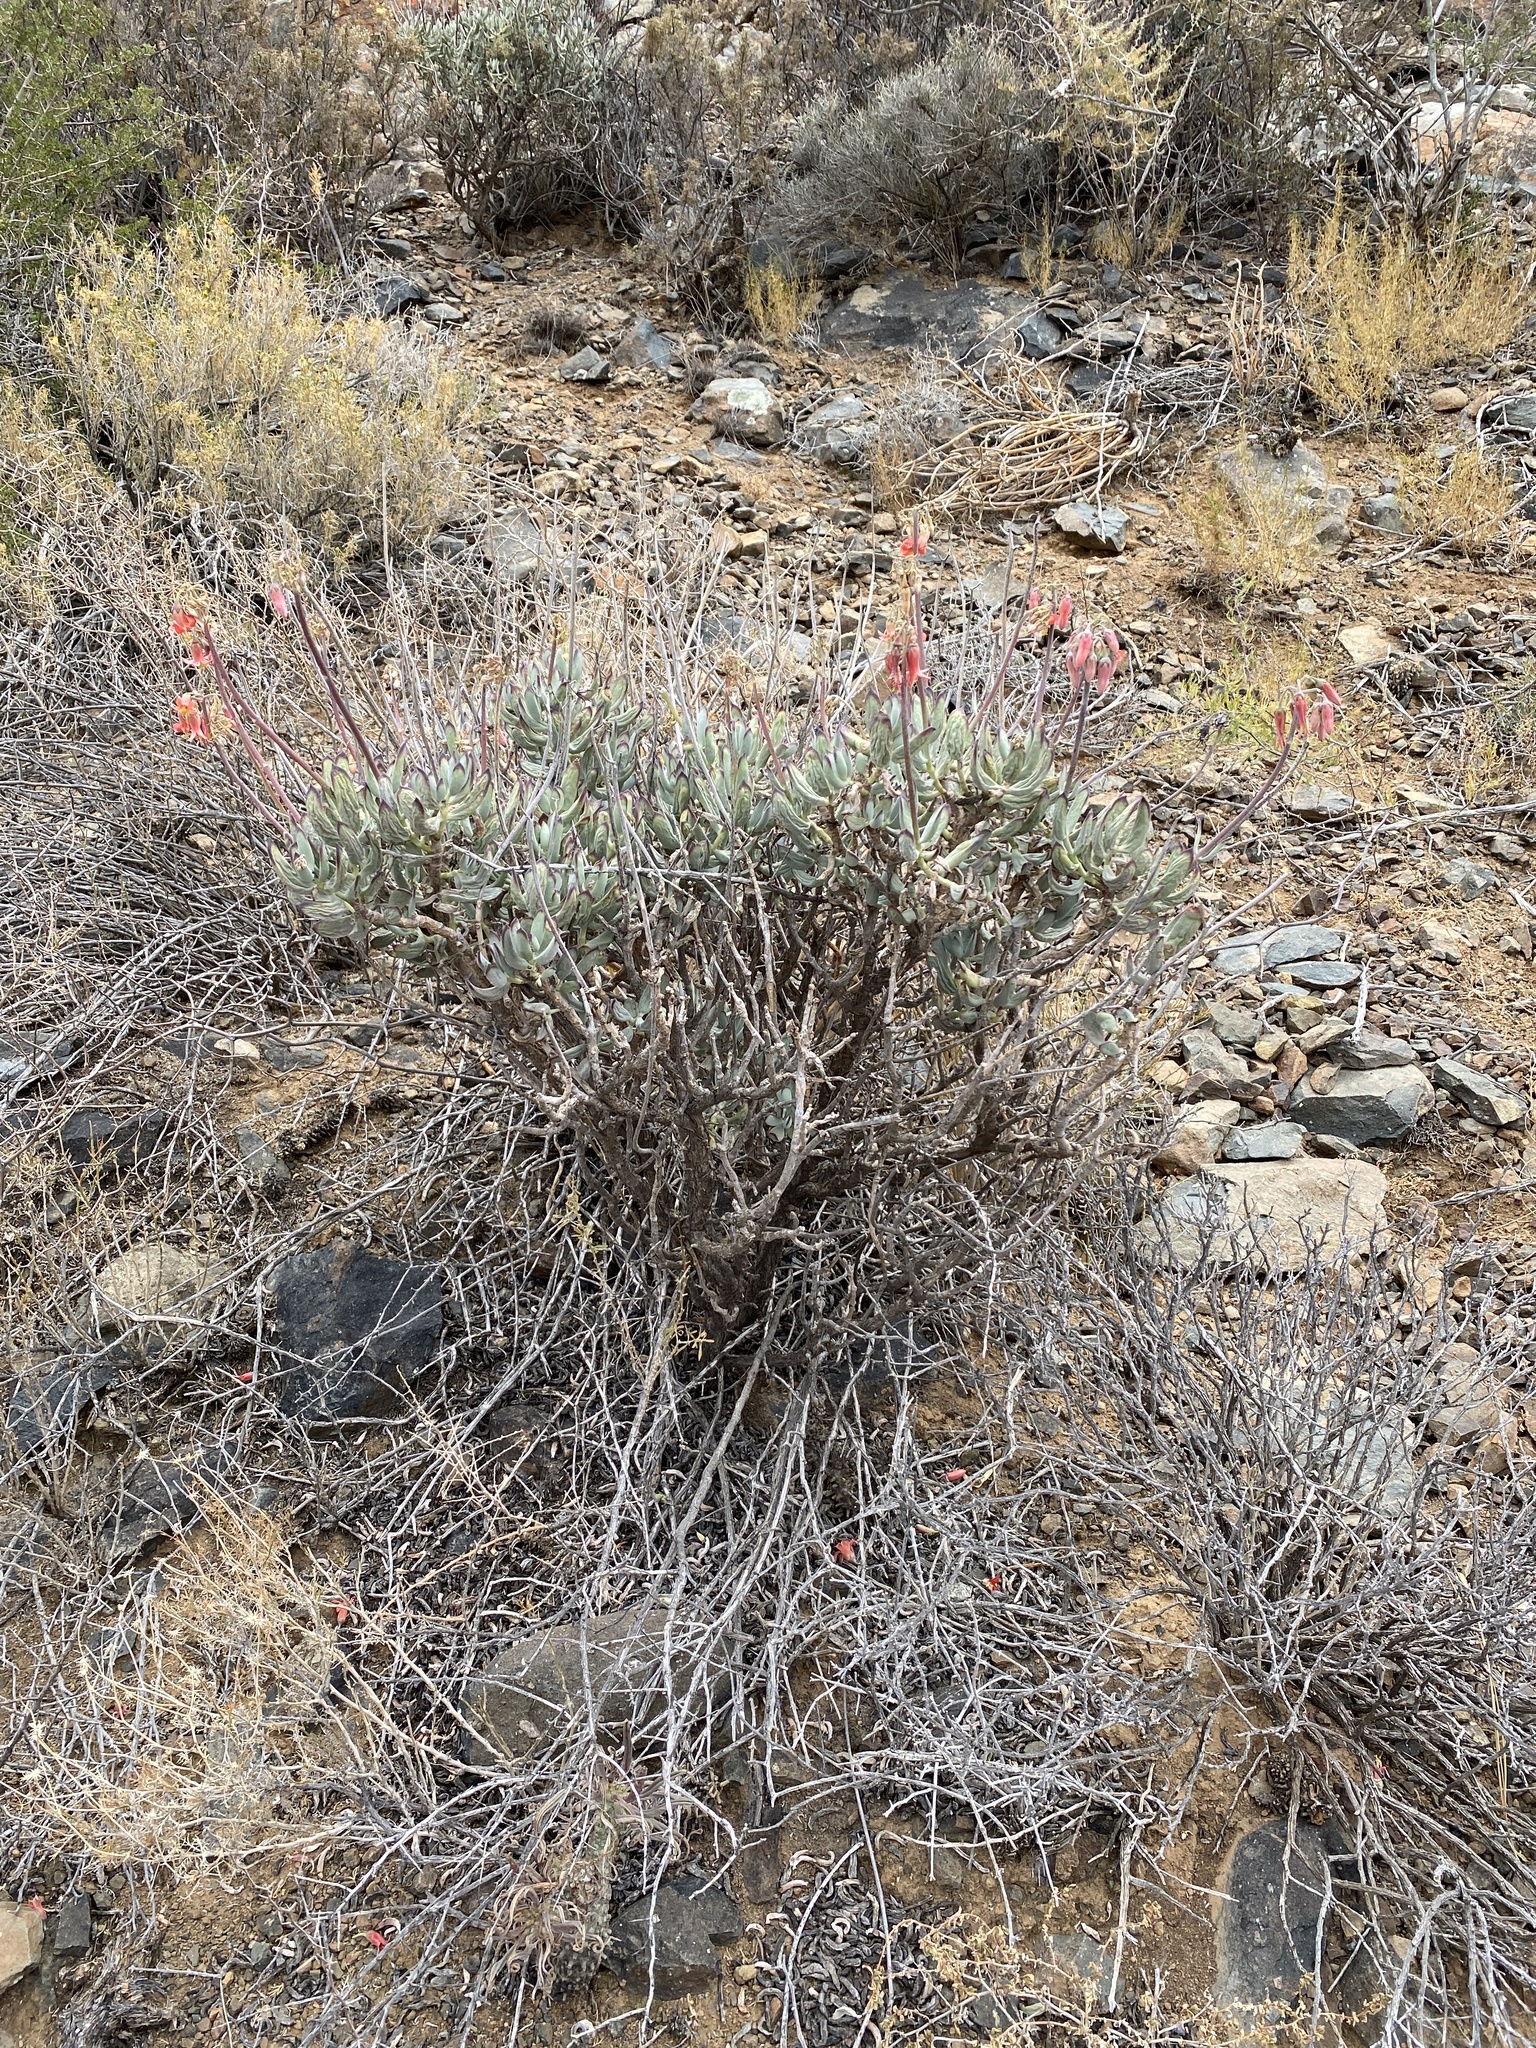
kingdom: Plantae
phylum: Tracheophyta
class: Magnoliopsida
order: Saxifragales
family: Crassulaceae
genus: Cotyledon
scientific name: Cotyledon orbiculata
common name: Pig's ear
